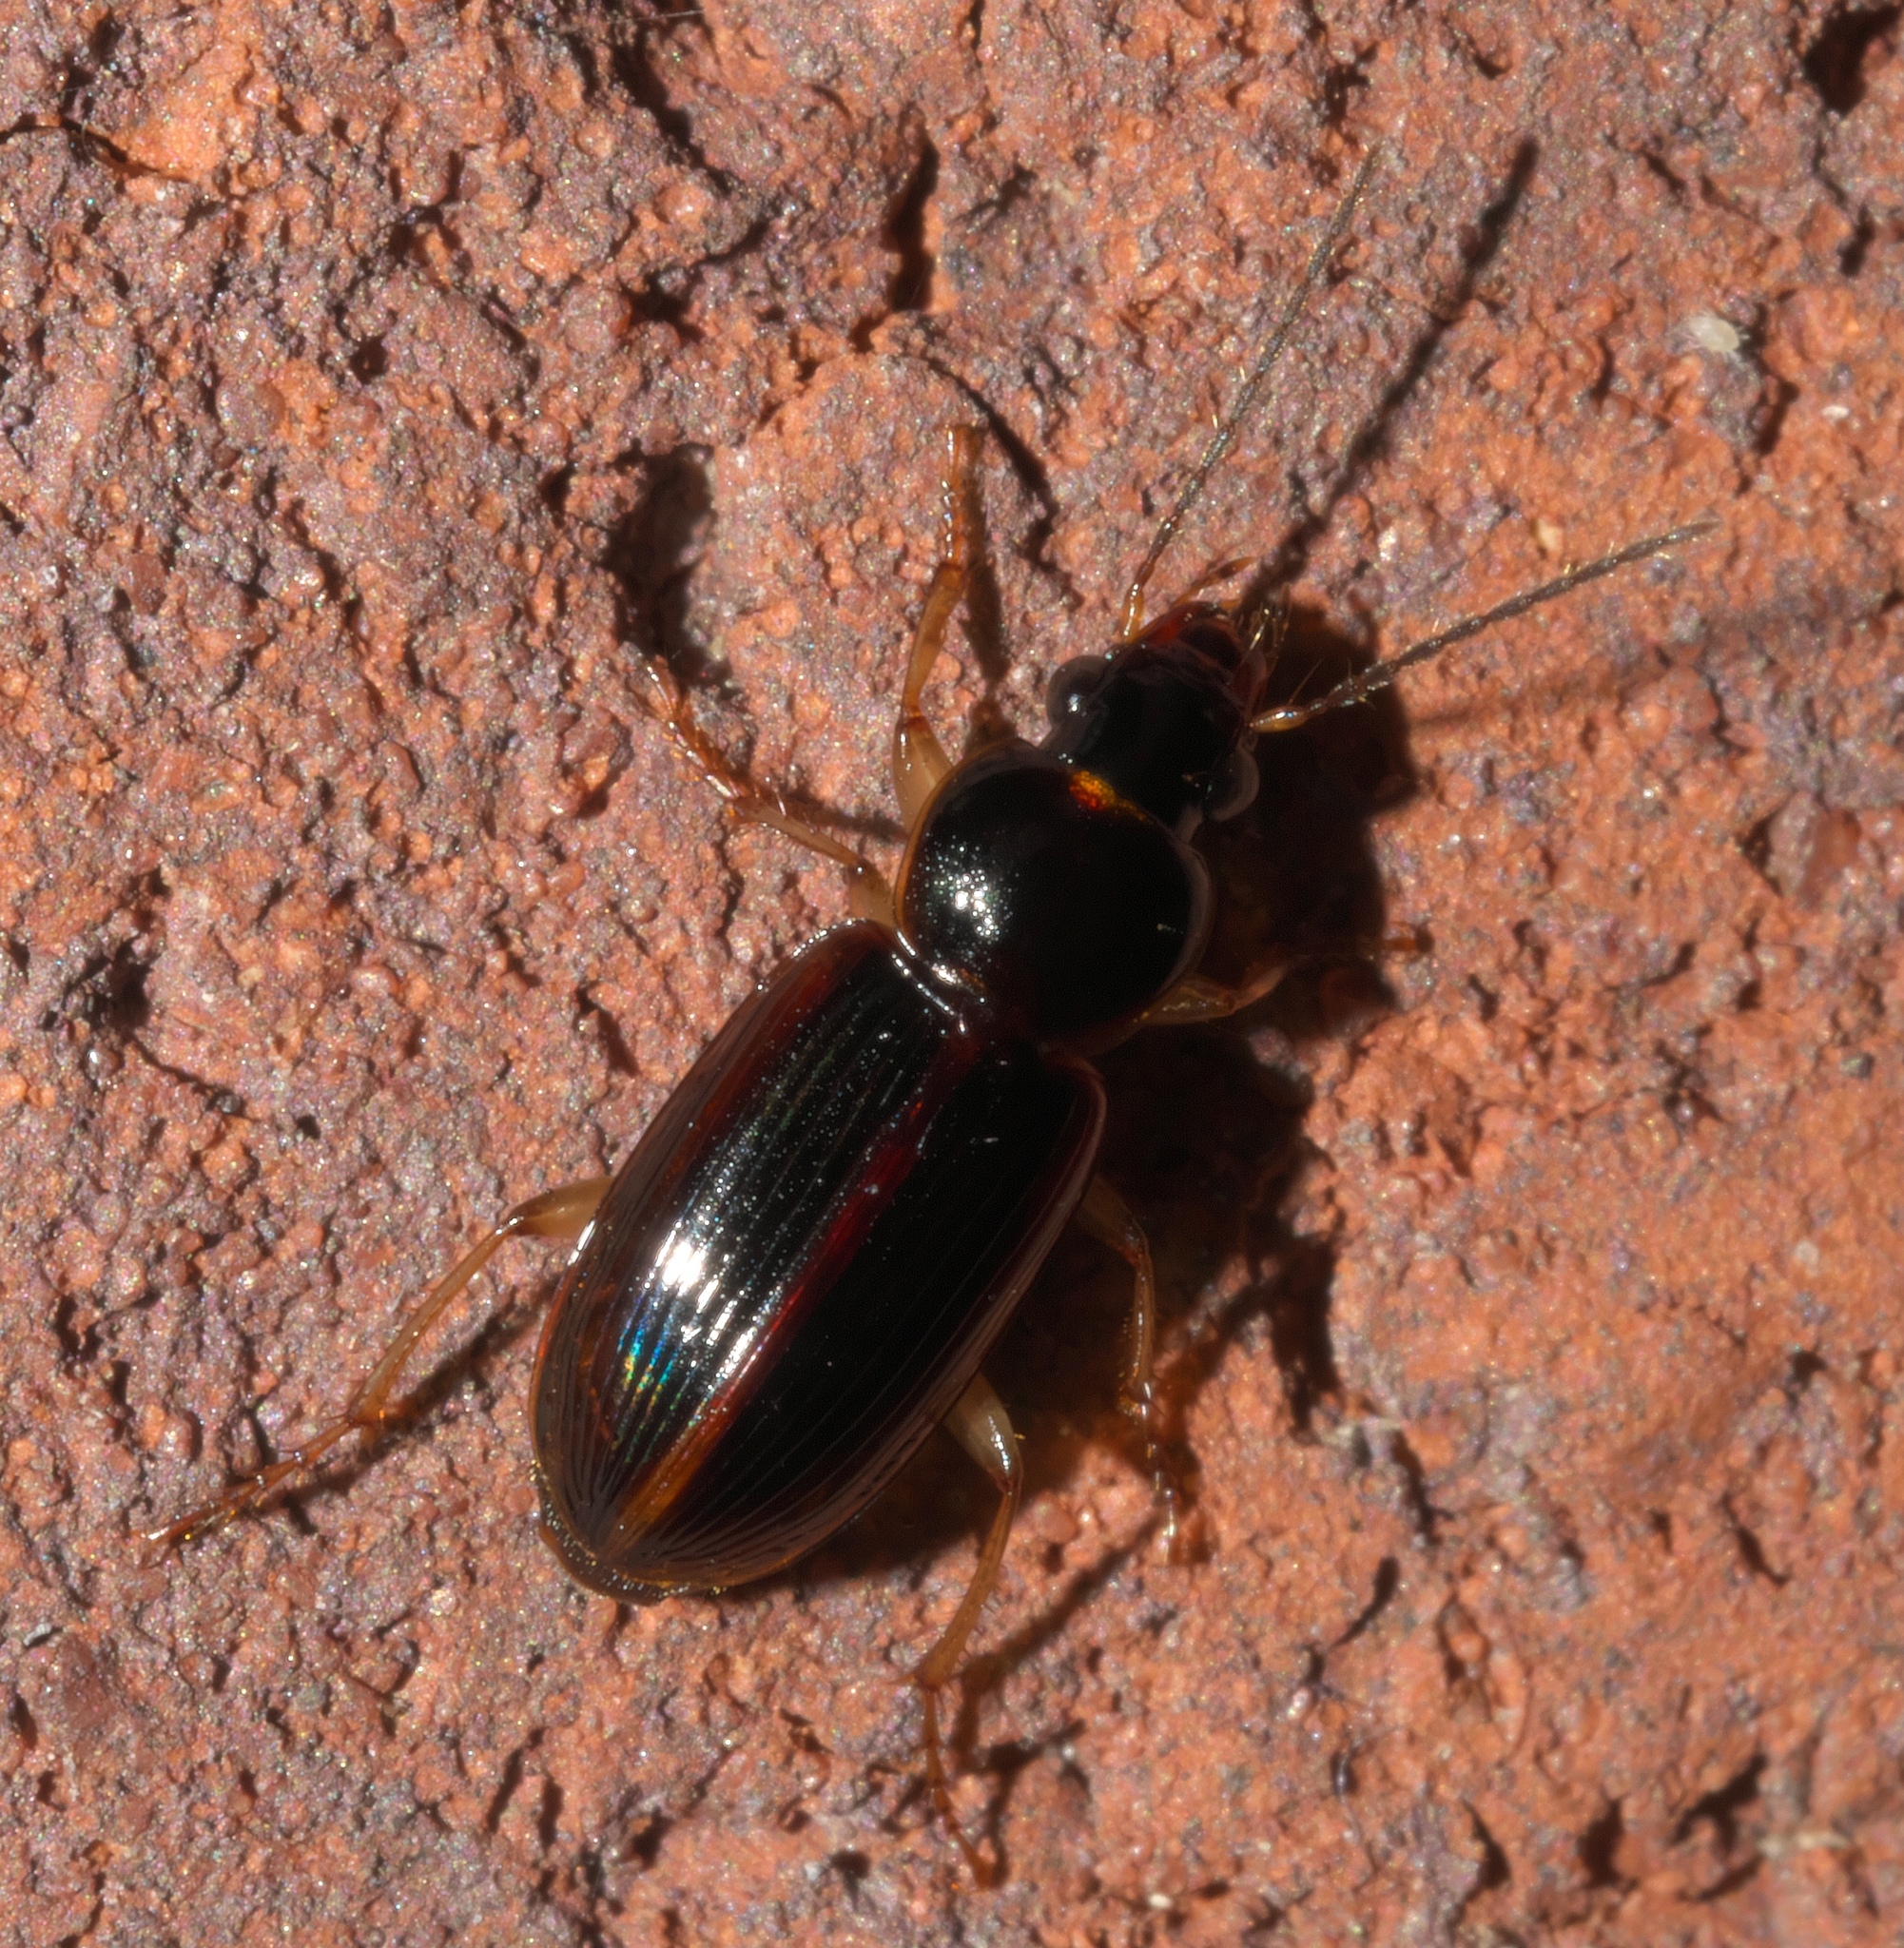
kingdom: Animalia
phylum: Arthropoda
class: Insecta
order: Coleoptera
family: Carabidae
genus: Stenolophus
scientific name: Stenolophus ochropezus
